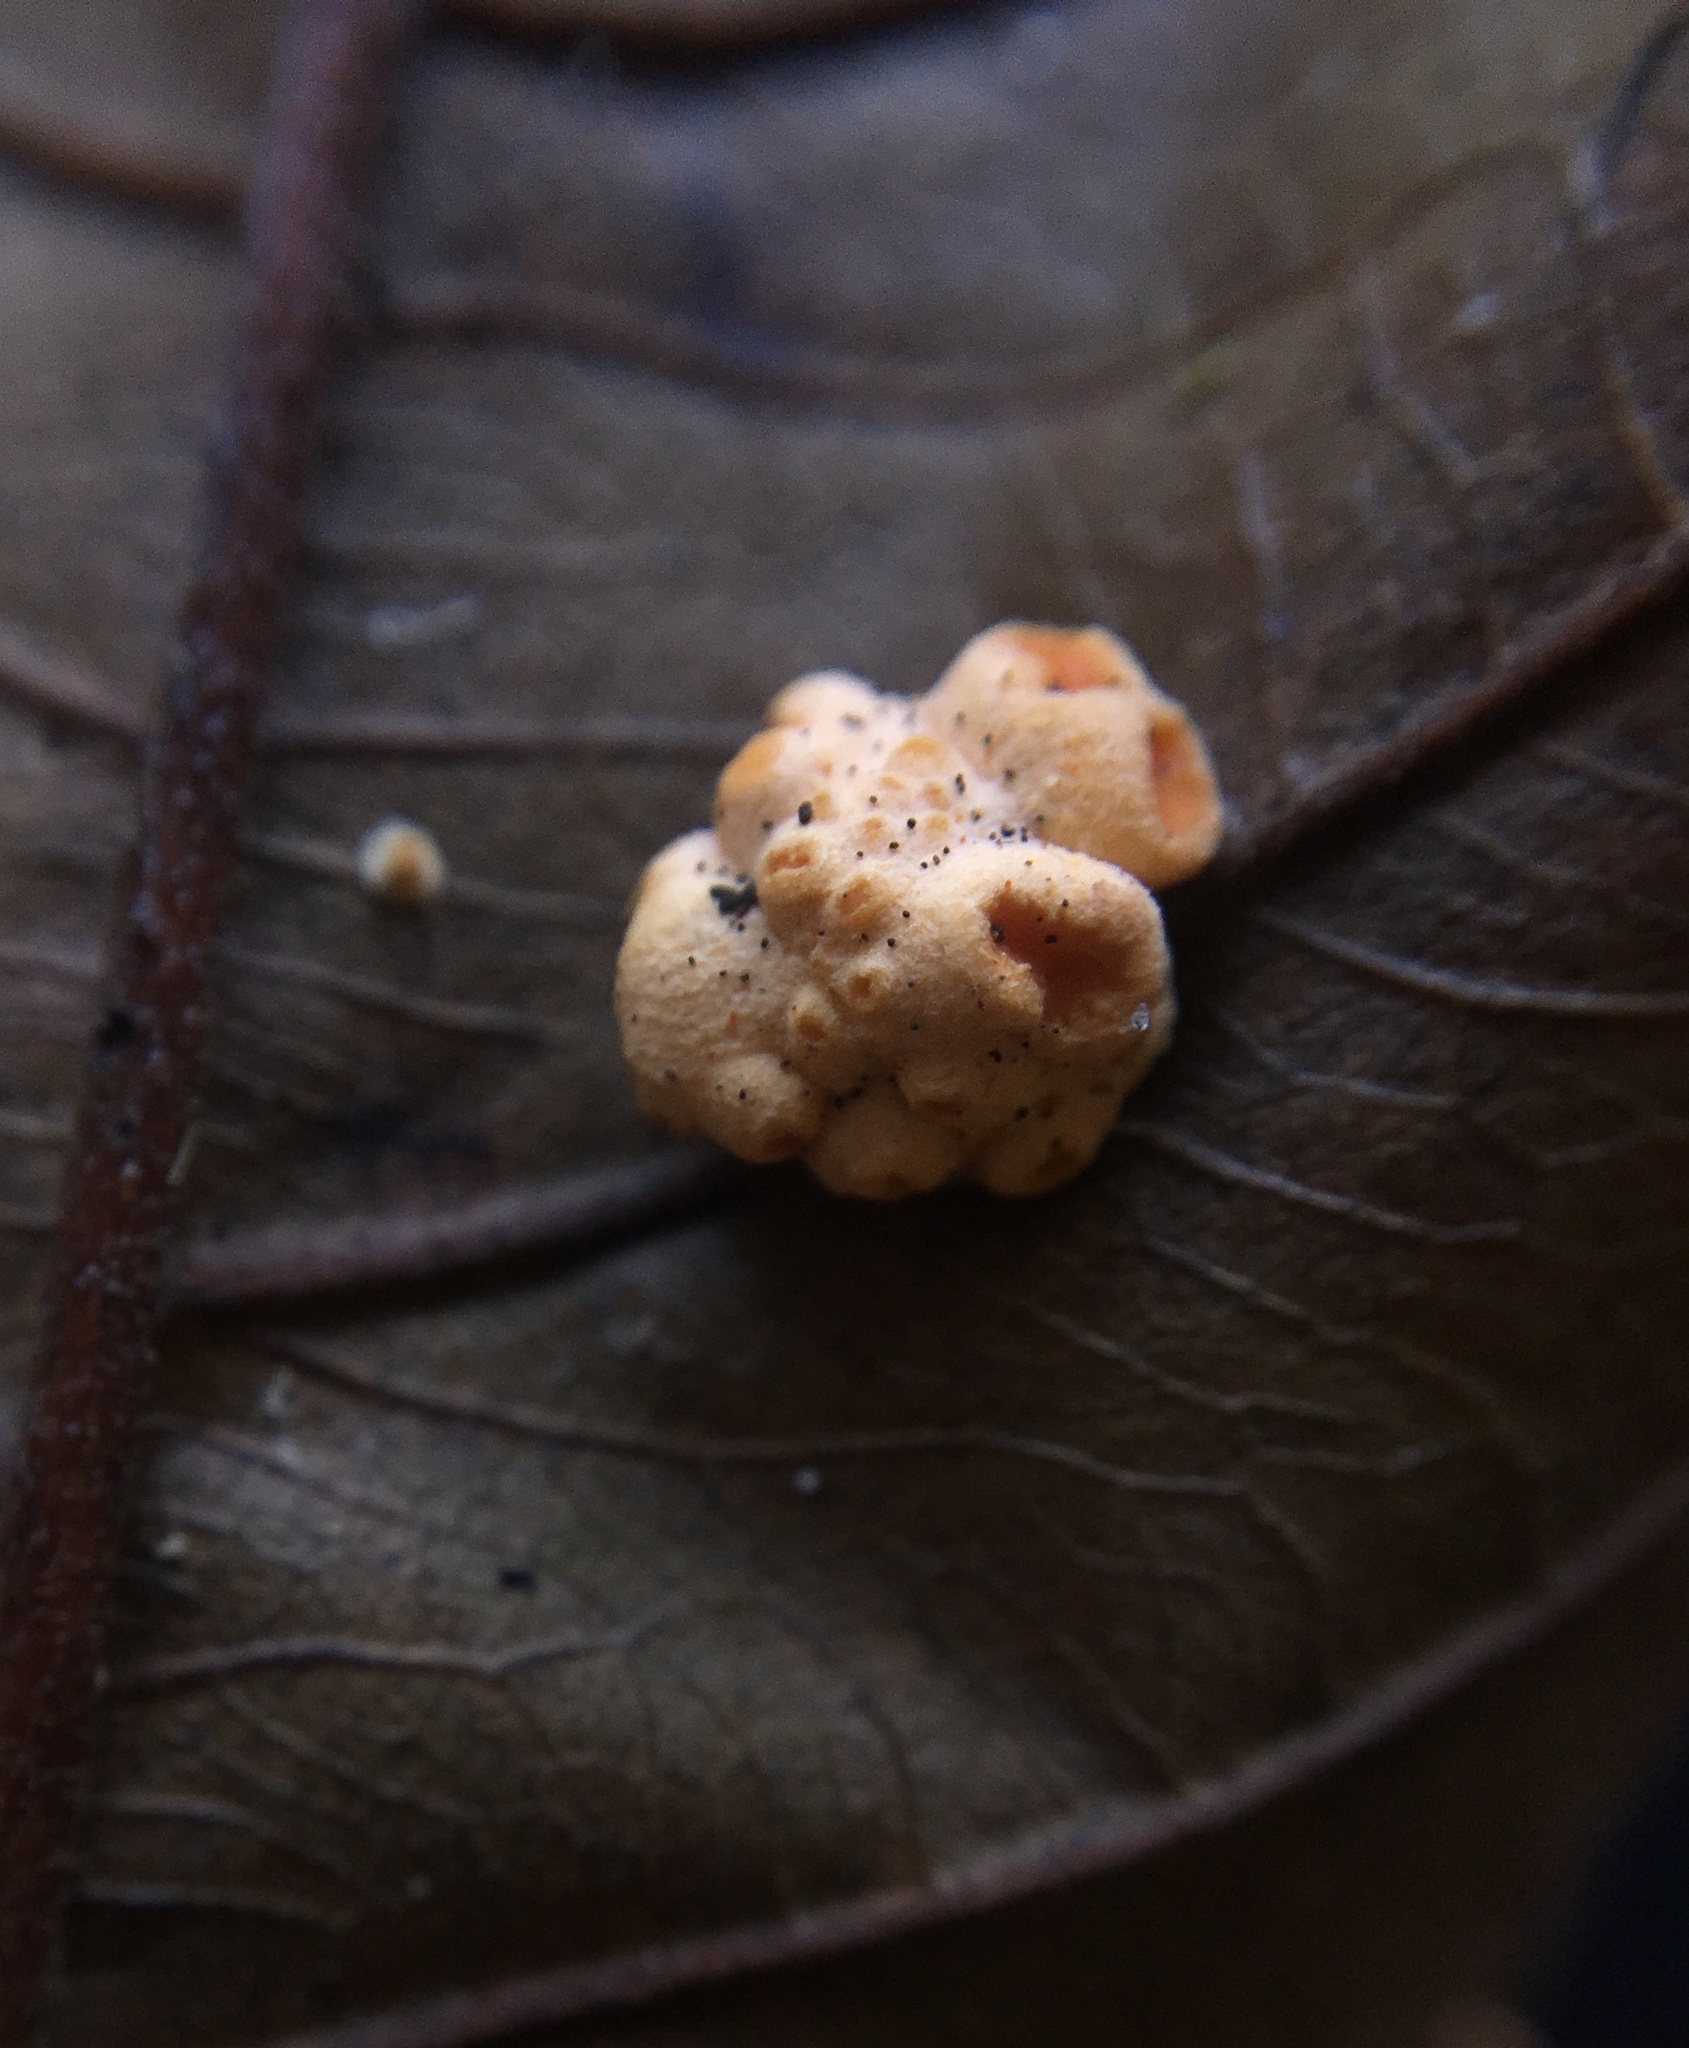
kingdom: Fungi
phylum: Ascomycota
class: Sordariomycetes
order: Hypocreales
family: Clavicipitaceae
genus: Moelleriella
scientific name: Moelleriella epiphylla
